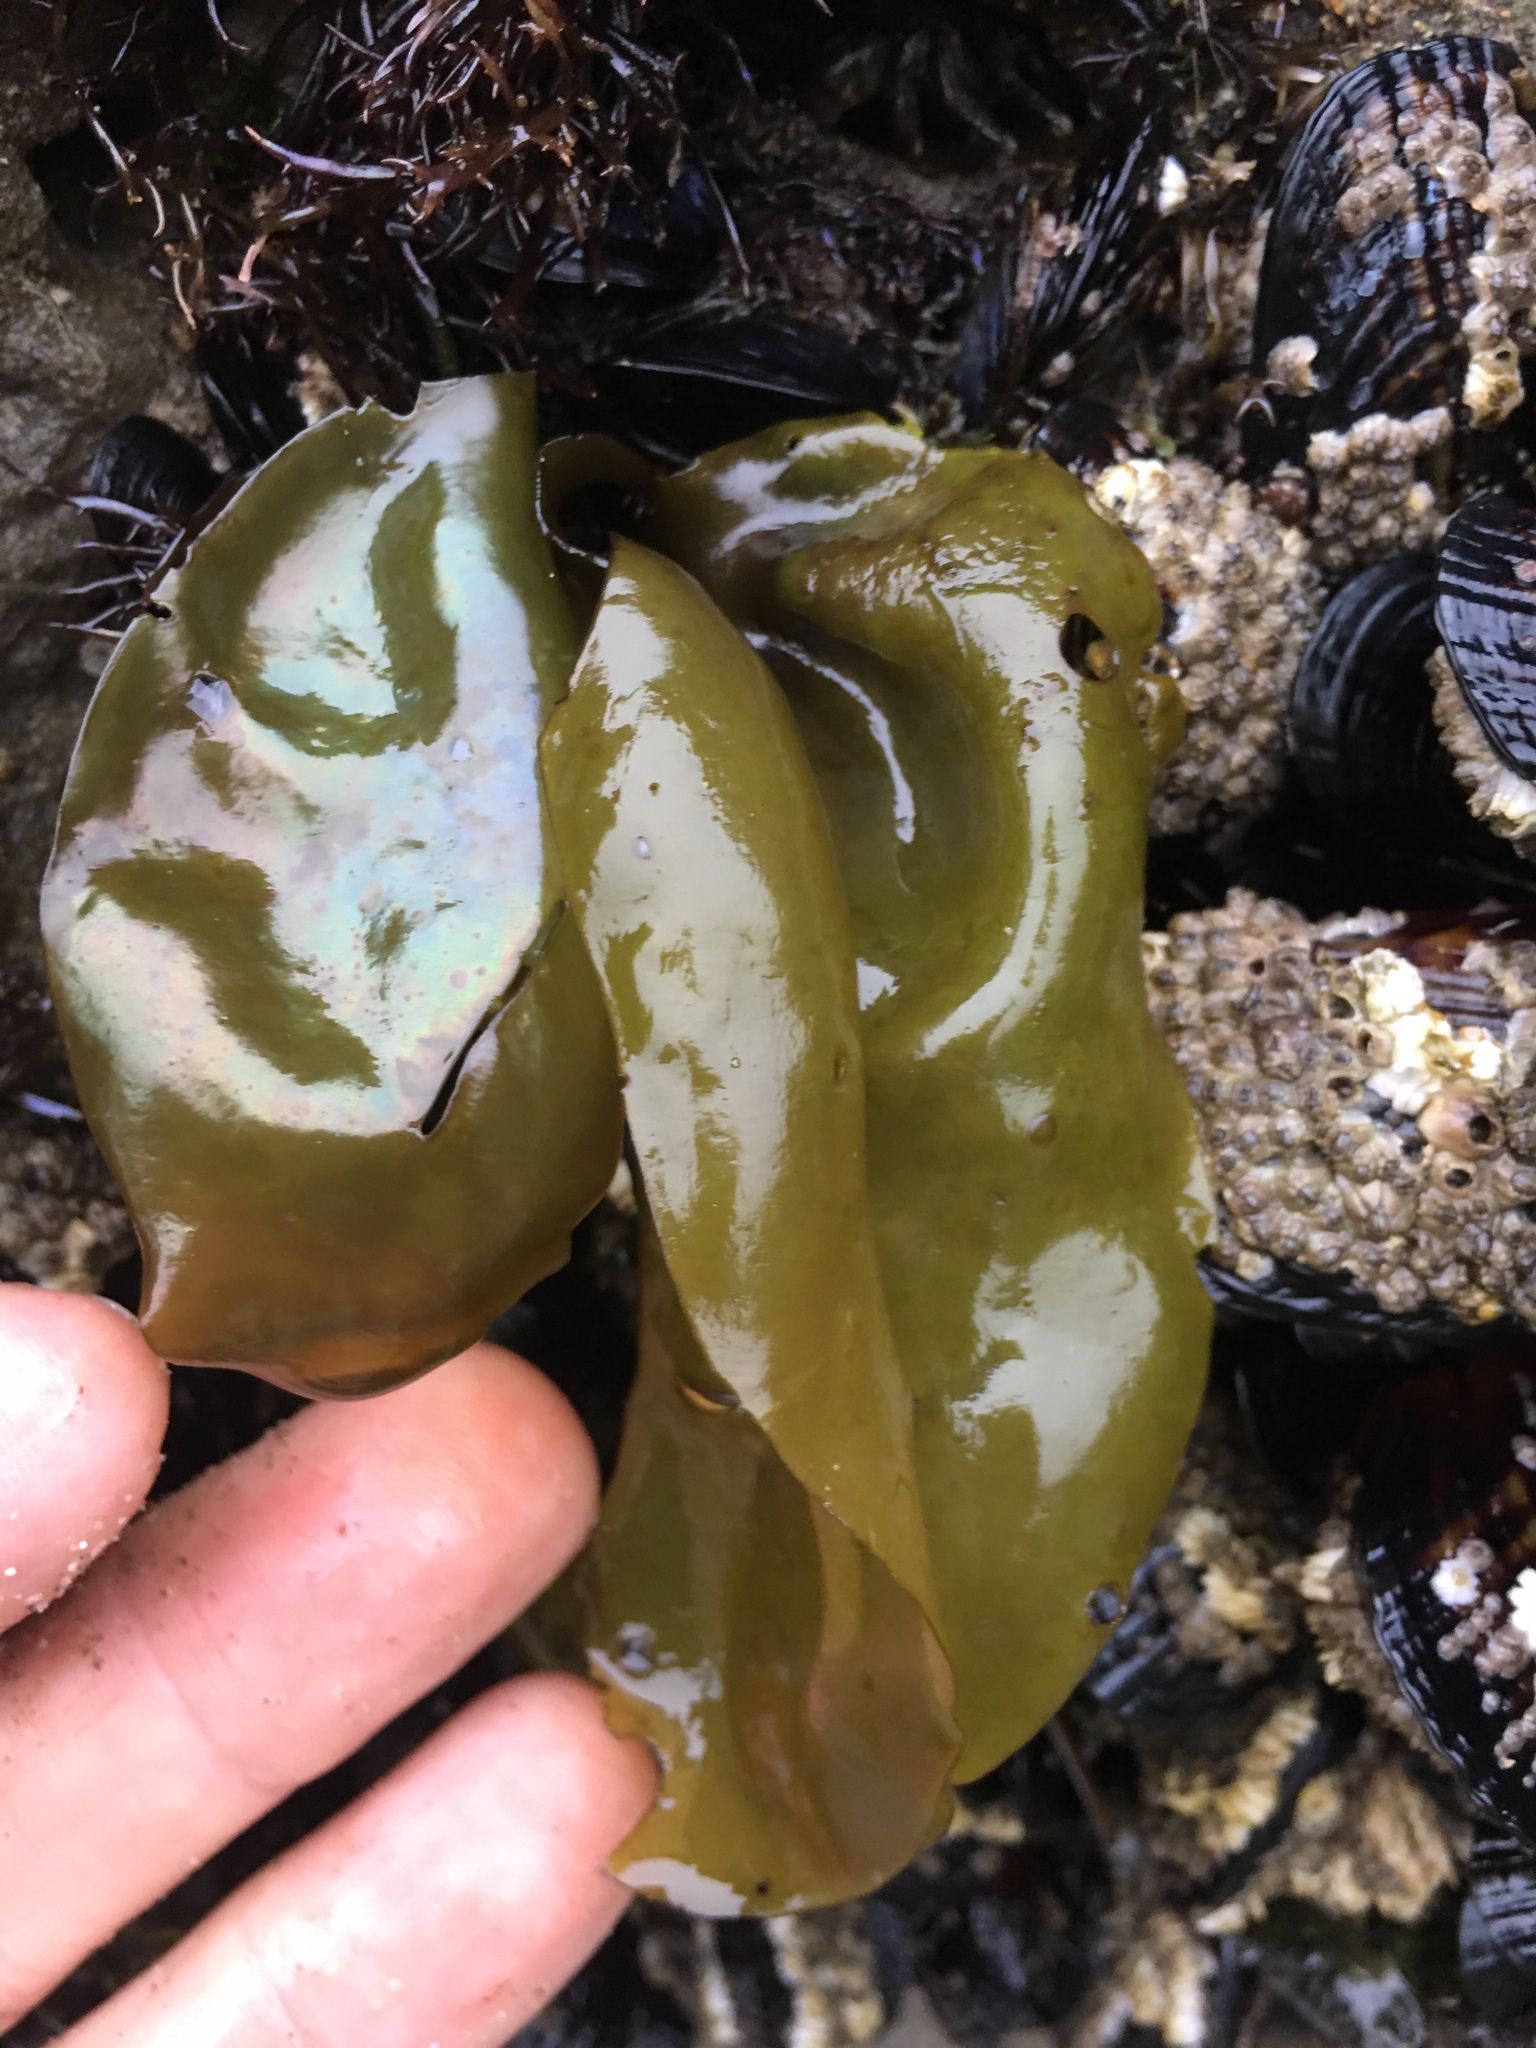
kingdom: Plantae
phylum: Rhodophyta
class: Florideophyceae
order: Gigartinales
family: Gigartinaceae
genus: Mazzaella
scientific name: Mazzaella flaccida
